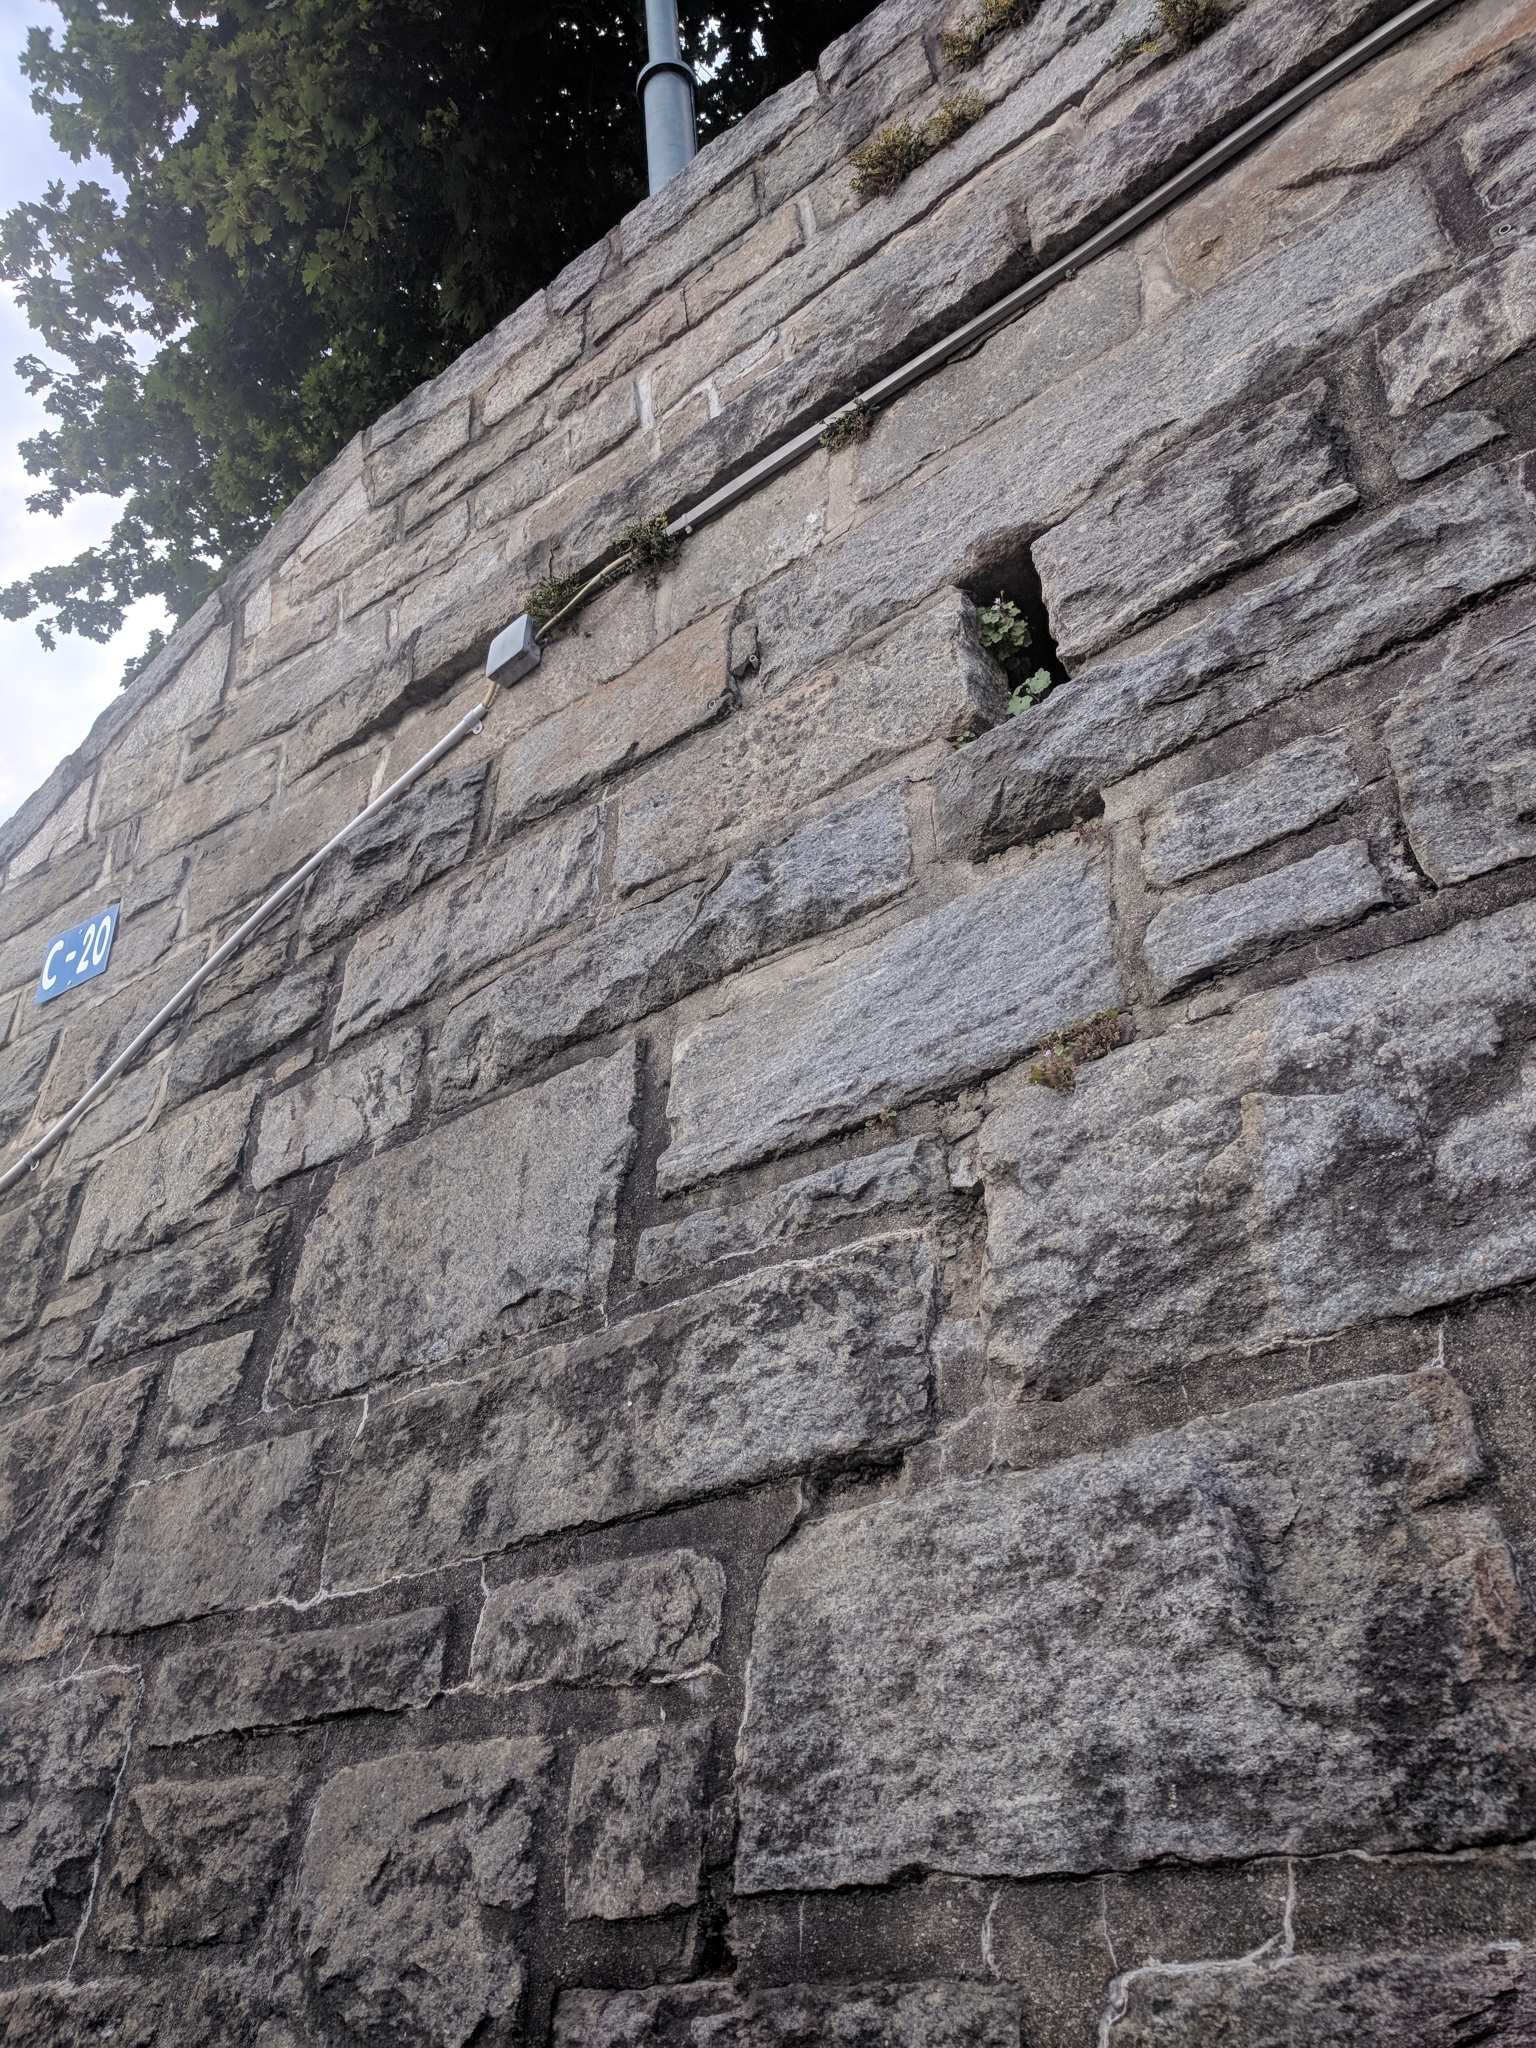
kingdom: Animalia
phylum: Chordata
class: Squamata
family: Lacertidae
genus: Podarcis
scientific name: Podarcis muralis
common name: Common wall lizard
